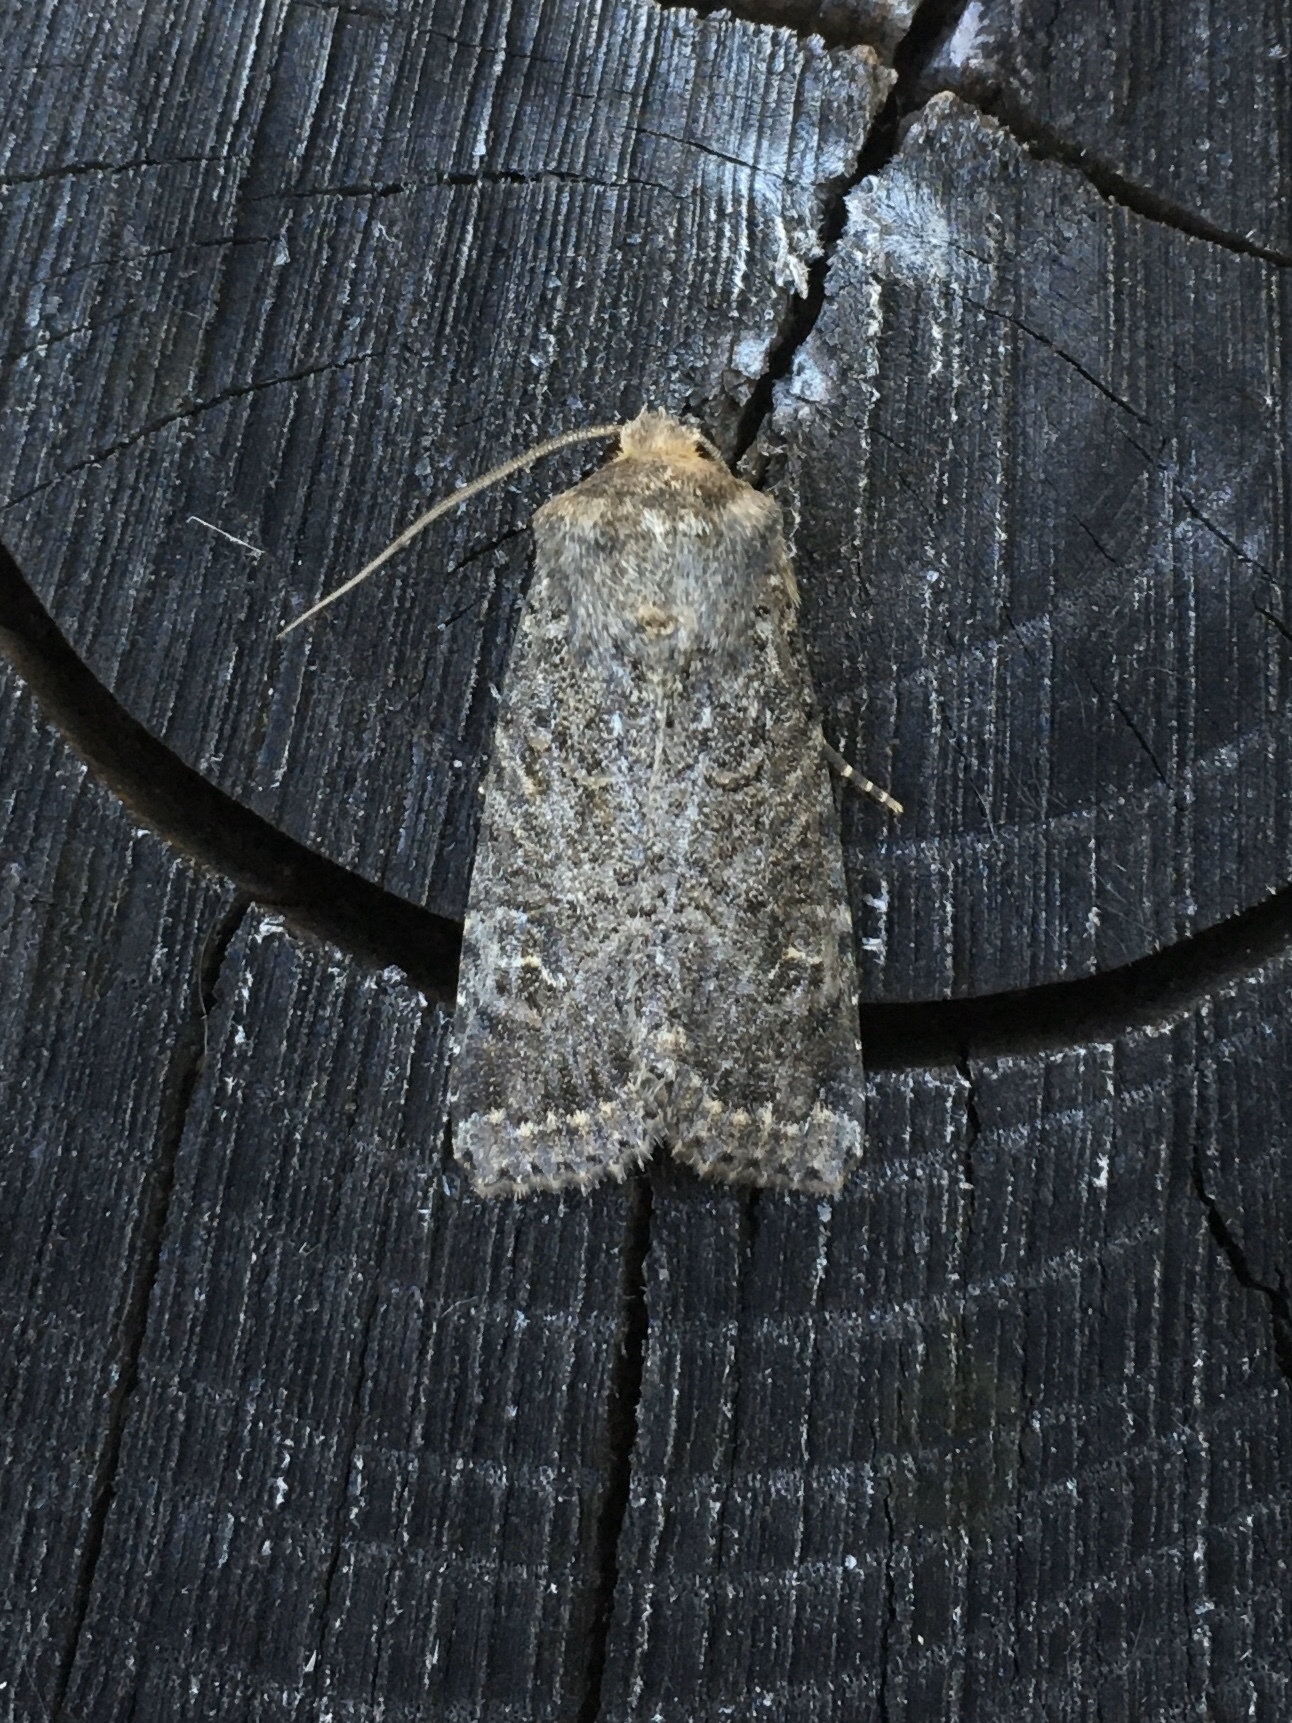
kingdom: Animalia
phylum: Arthropoda
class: Insecta
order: Lepidoptera
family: Noctuidae
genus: Apamea
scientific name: Apamea devastator
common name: Glassy cutworm
